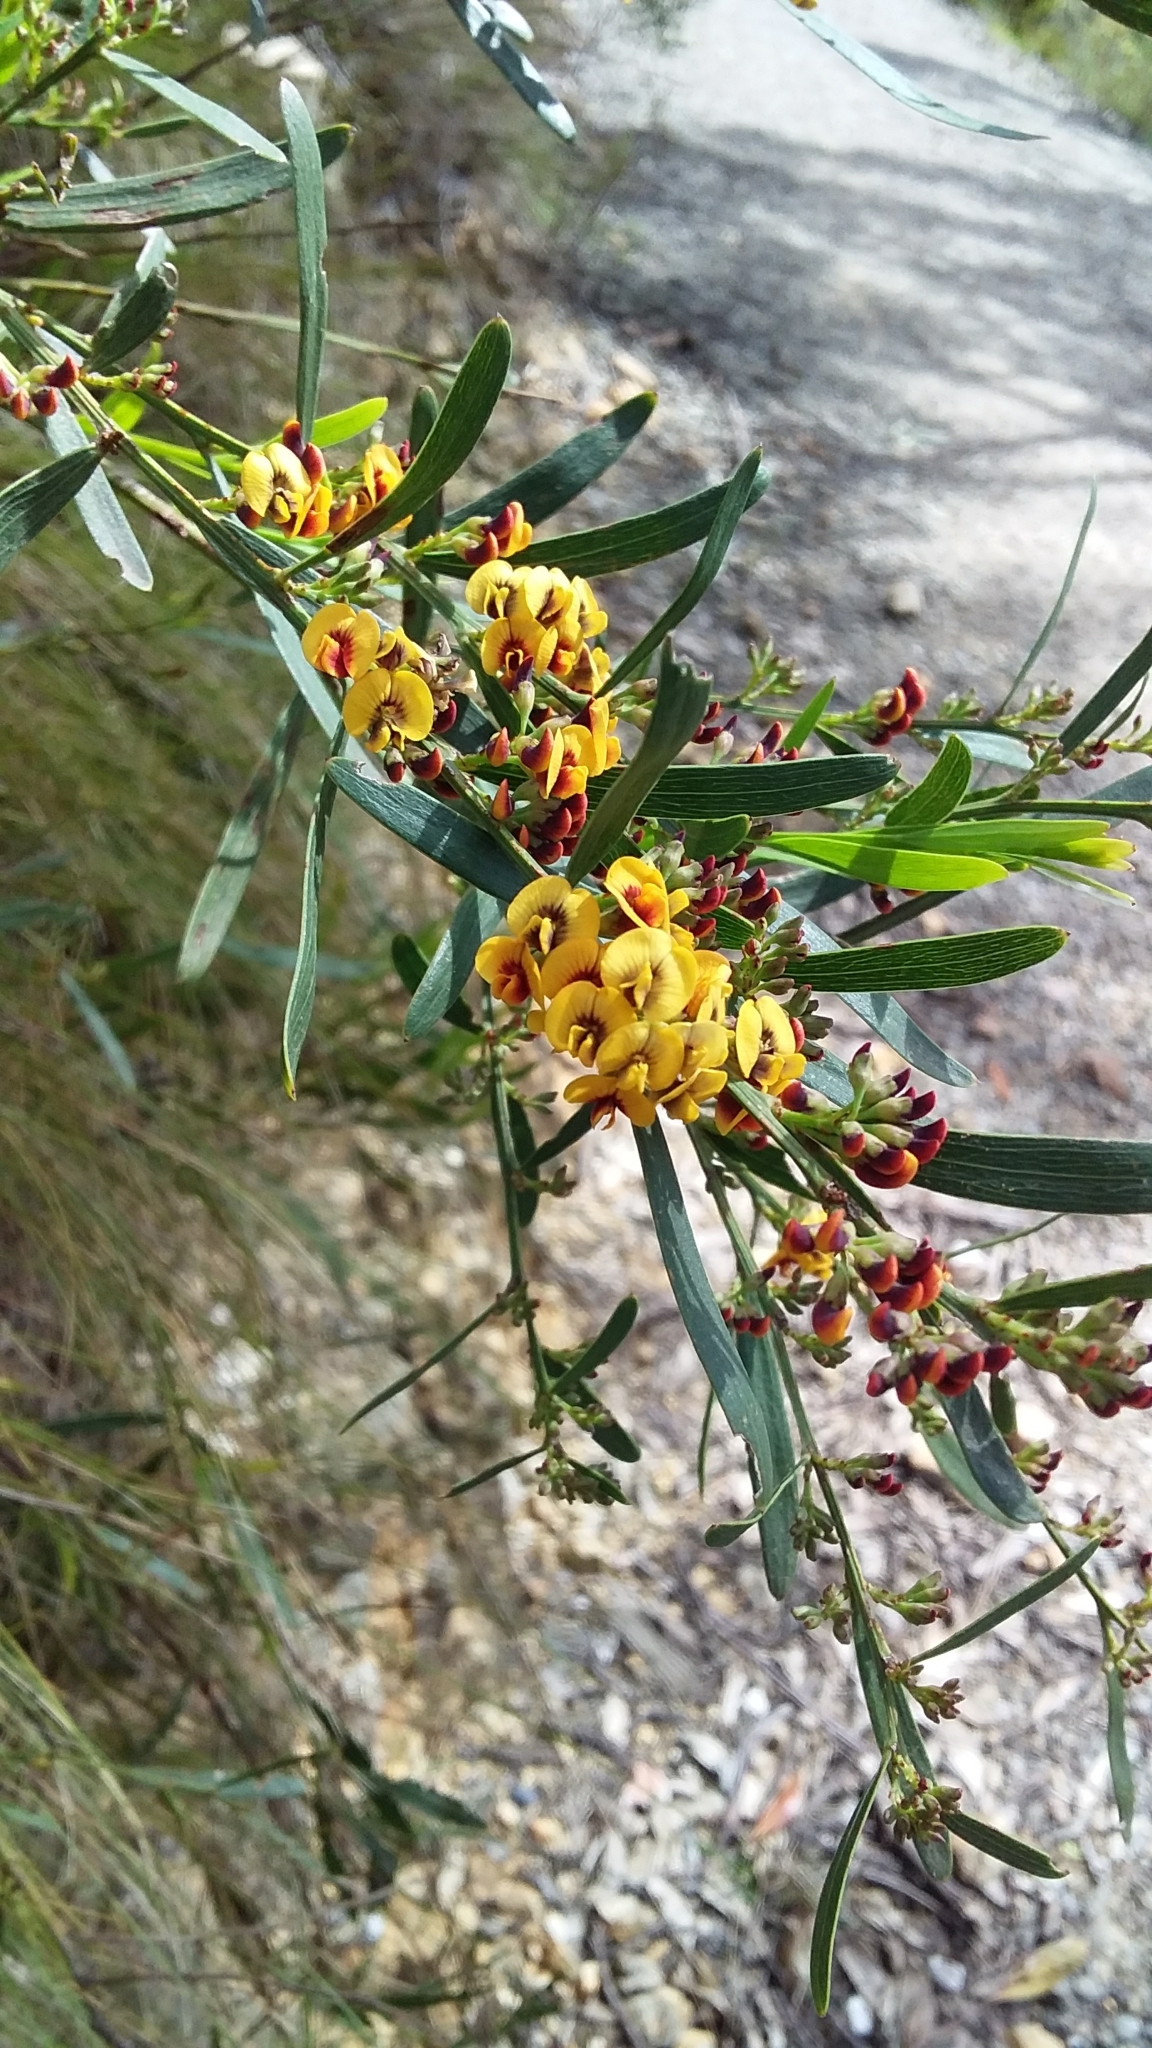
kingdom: Plantae
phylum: Tracheophyta
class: Magnoliopsida
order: Fabales
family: Fabaceae
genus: Daviesia
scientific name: Daviesia leptophylla
